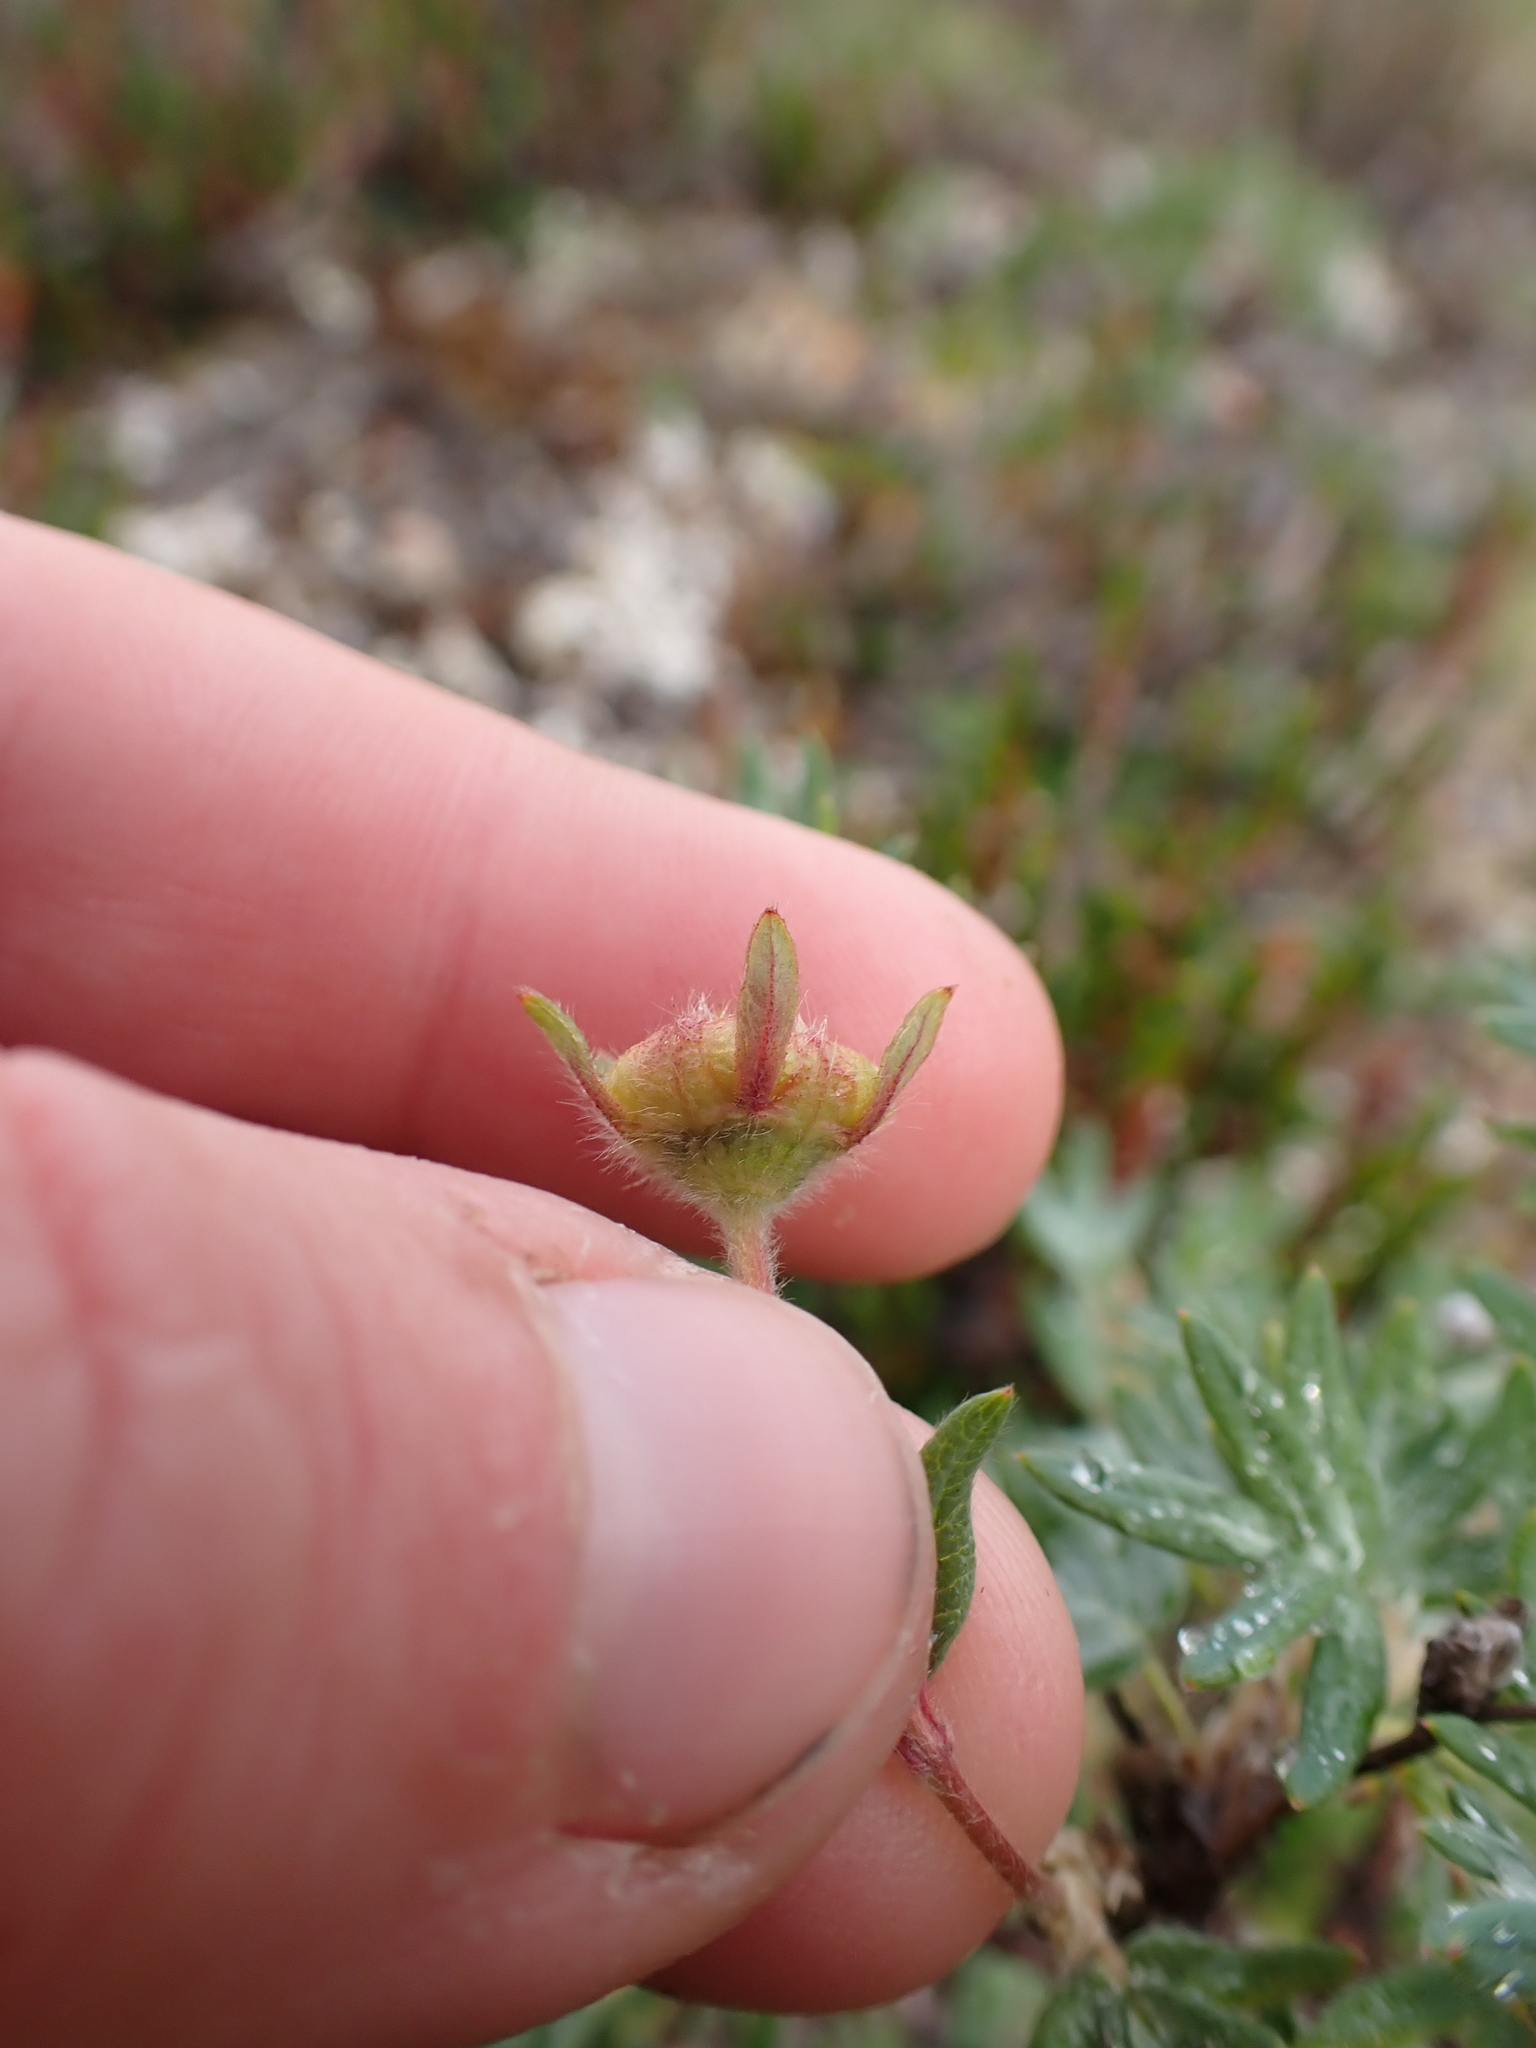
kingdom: Plantae
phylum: Tracheophyta
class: Magnoliopsida
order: Rosales
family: Rosaceae
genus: Dasiphora
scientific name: Dasiphora fruticosa
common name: Shrubby cinquefoil
